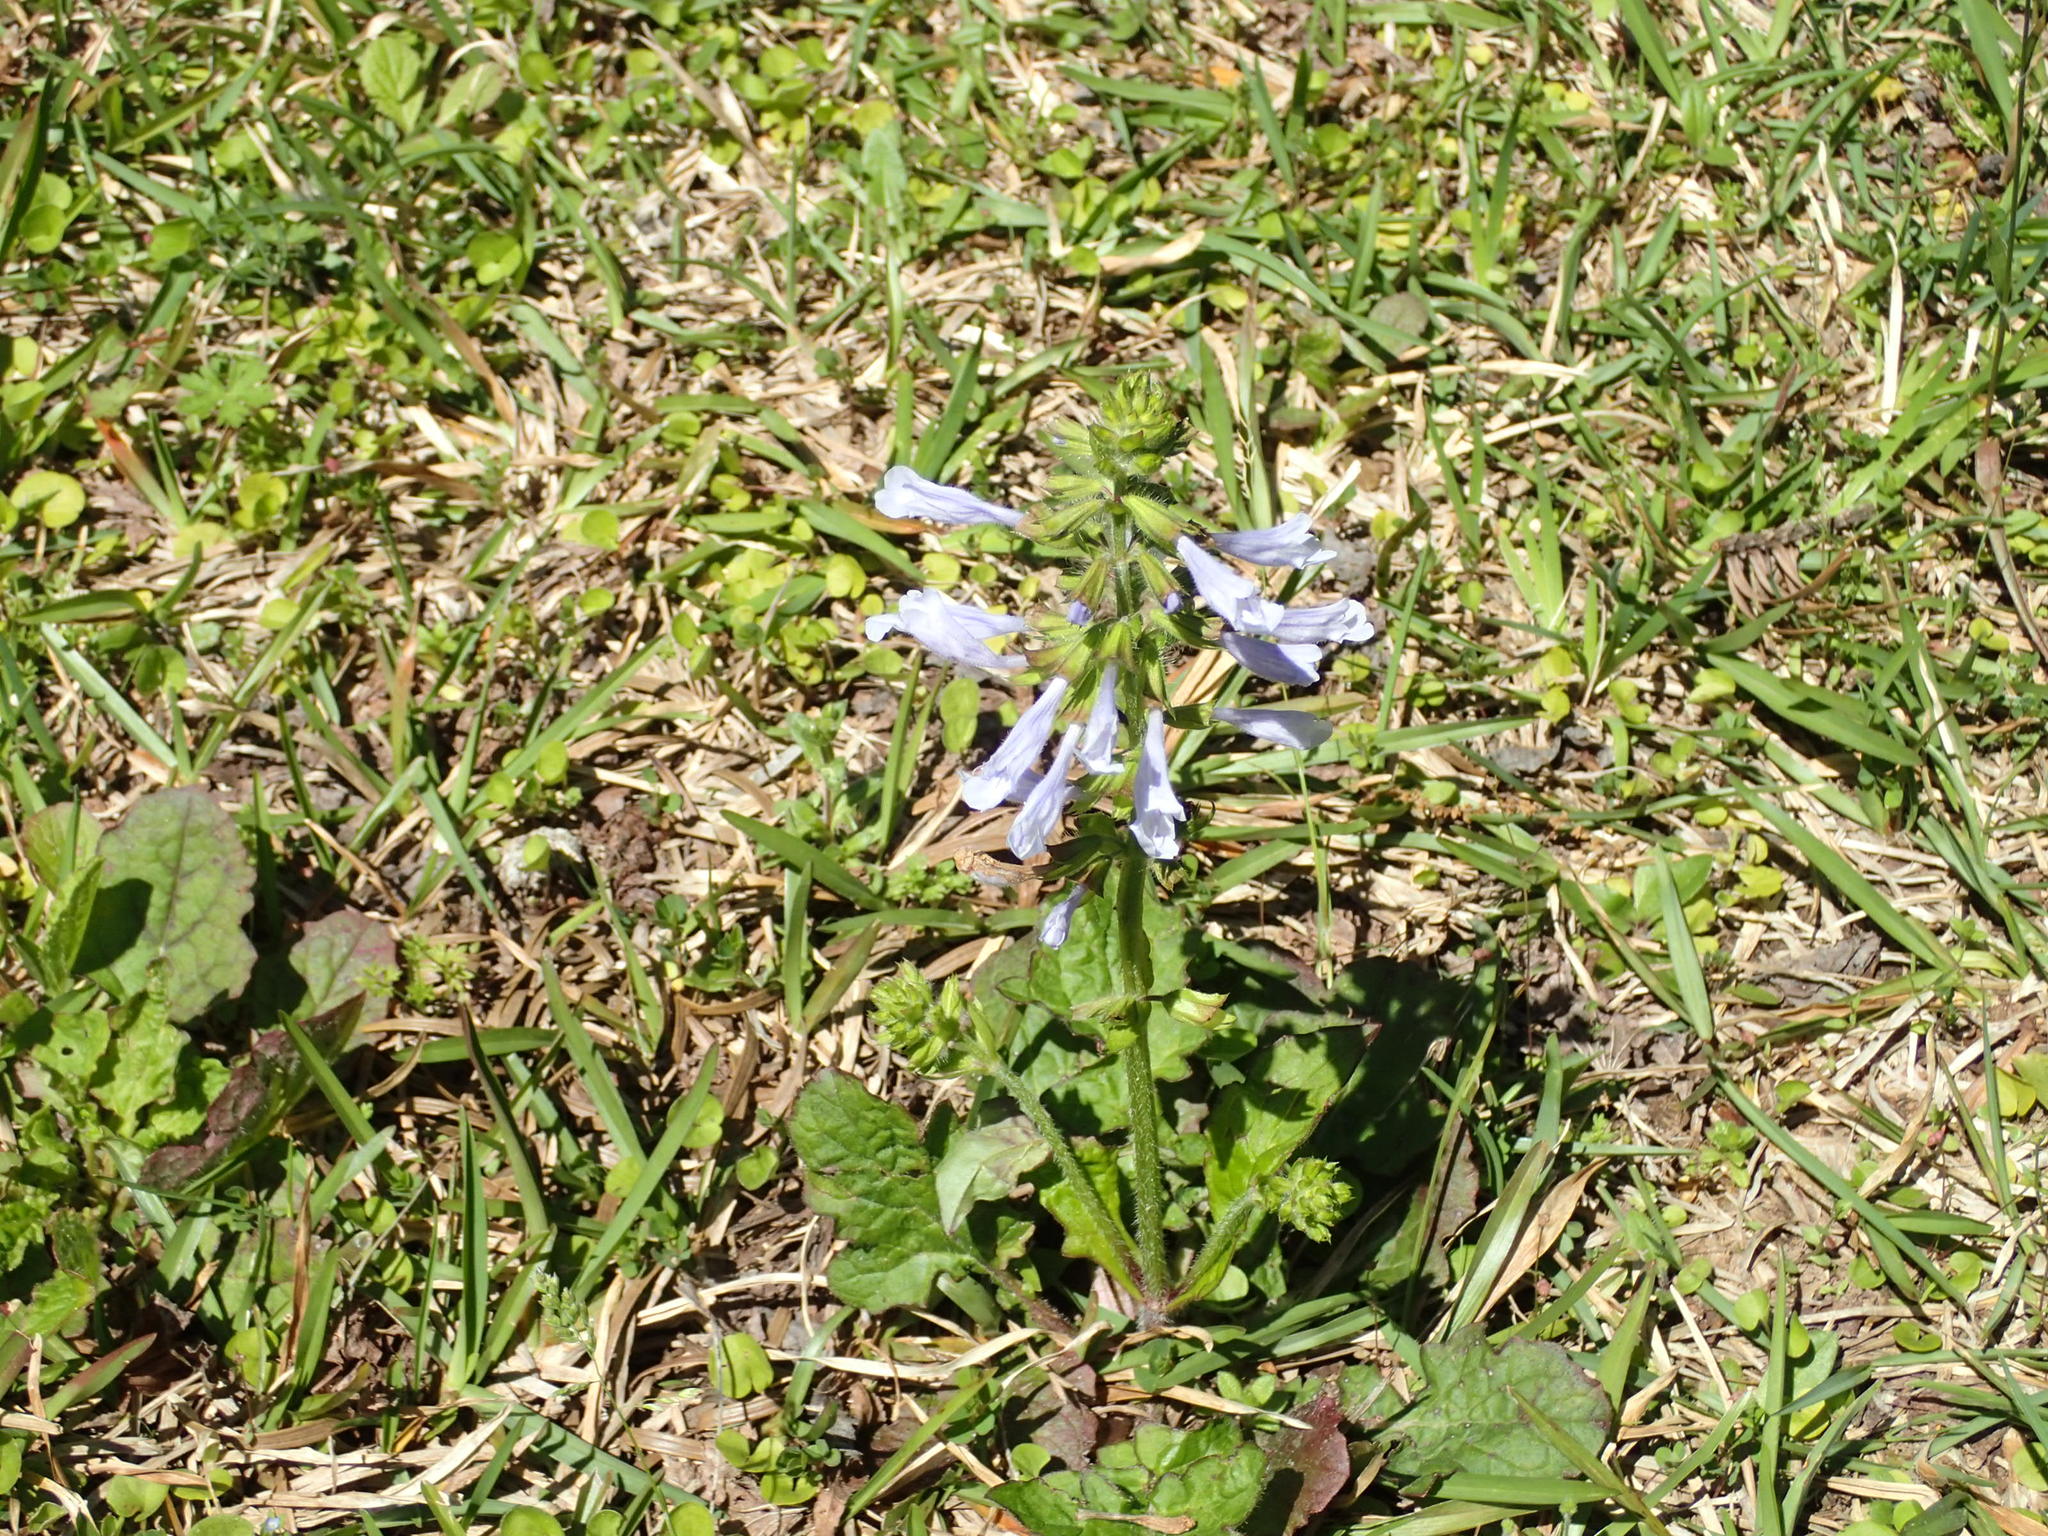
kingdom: Plantae
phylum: Tracheophyta
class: Magnoliopsida
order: Lamiales
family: Lamiaceae
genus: Salvia
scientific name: Salvia lyrata
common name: Cancerweed
